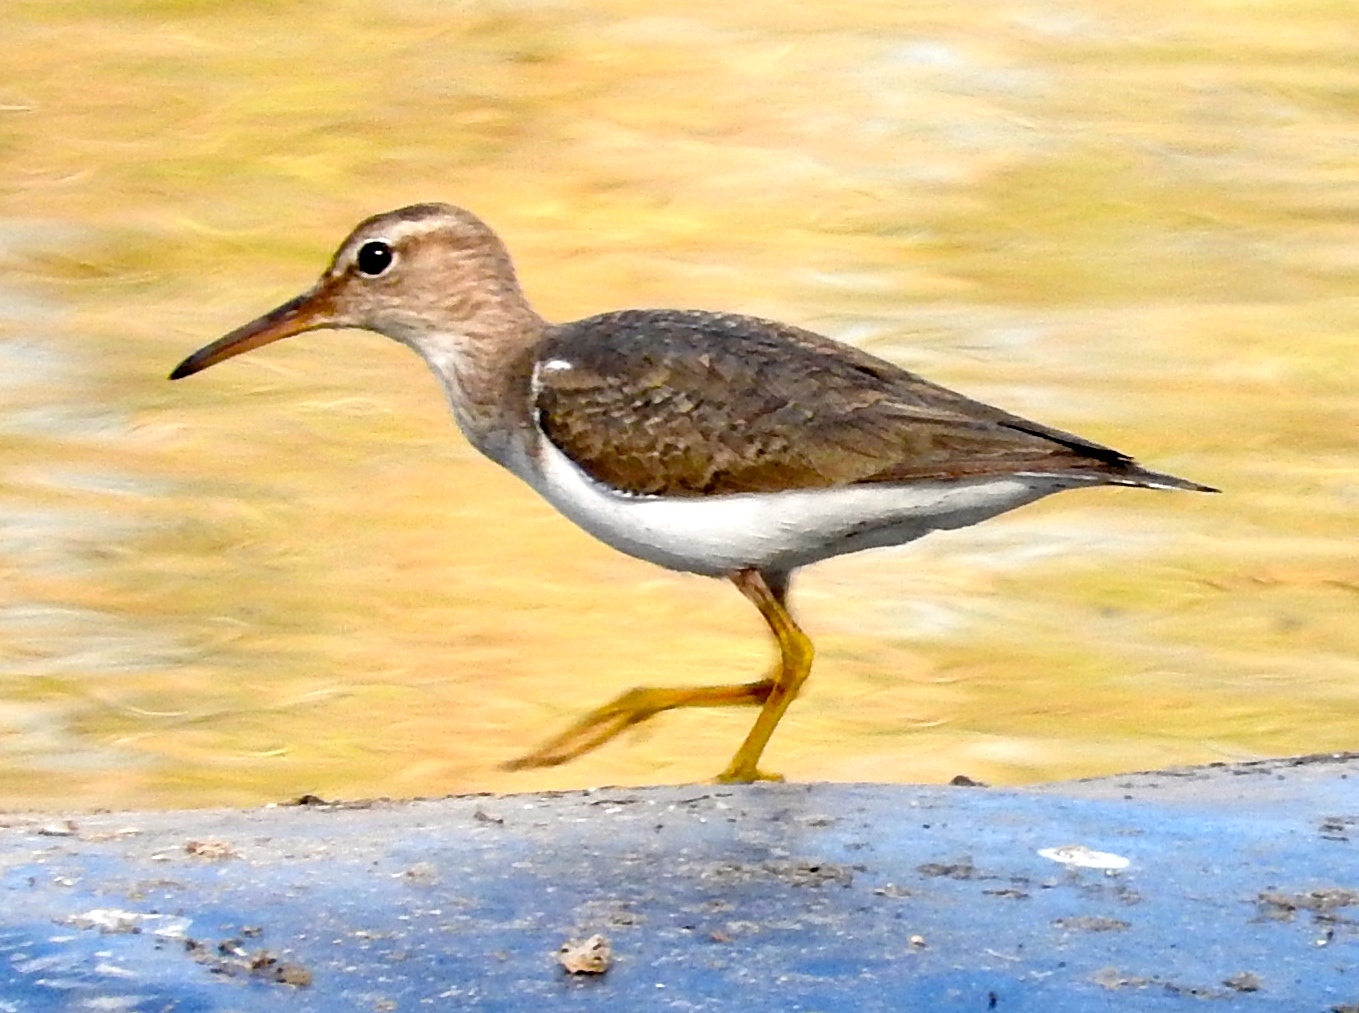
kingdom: Animalia
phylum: Chordata
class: Aves
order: Charadriiformes
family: Scolopacidae
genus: Actitis
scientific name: Actitis macularius
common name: Spotted sandpiper
